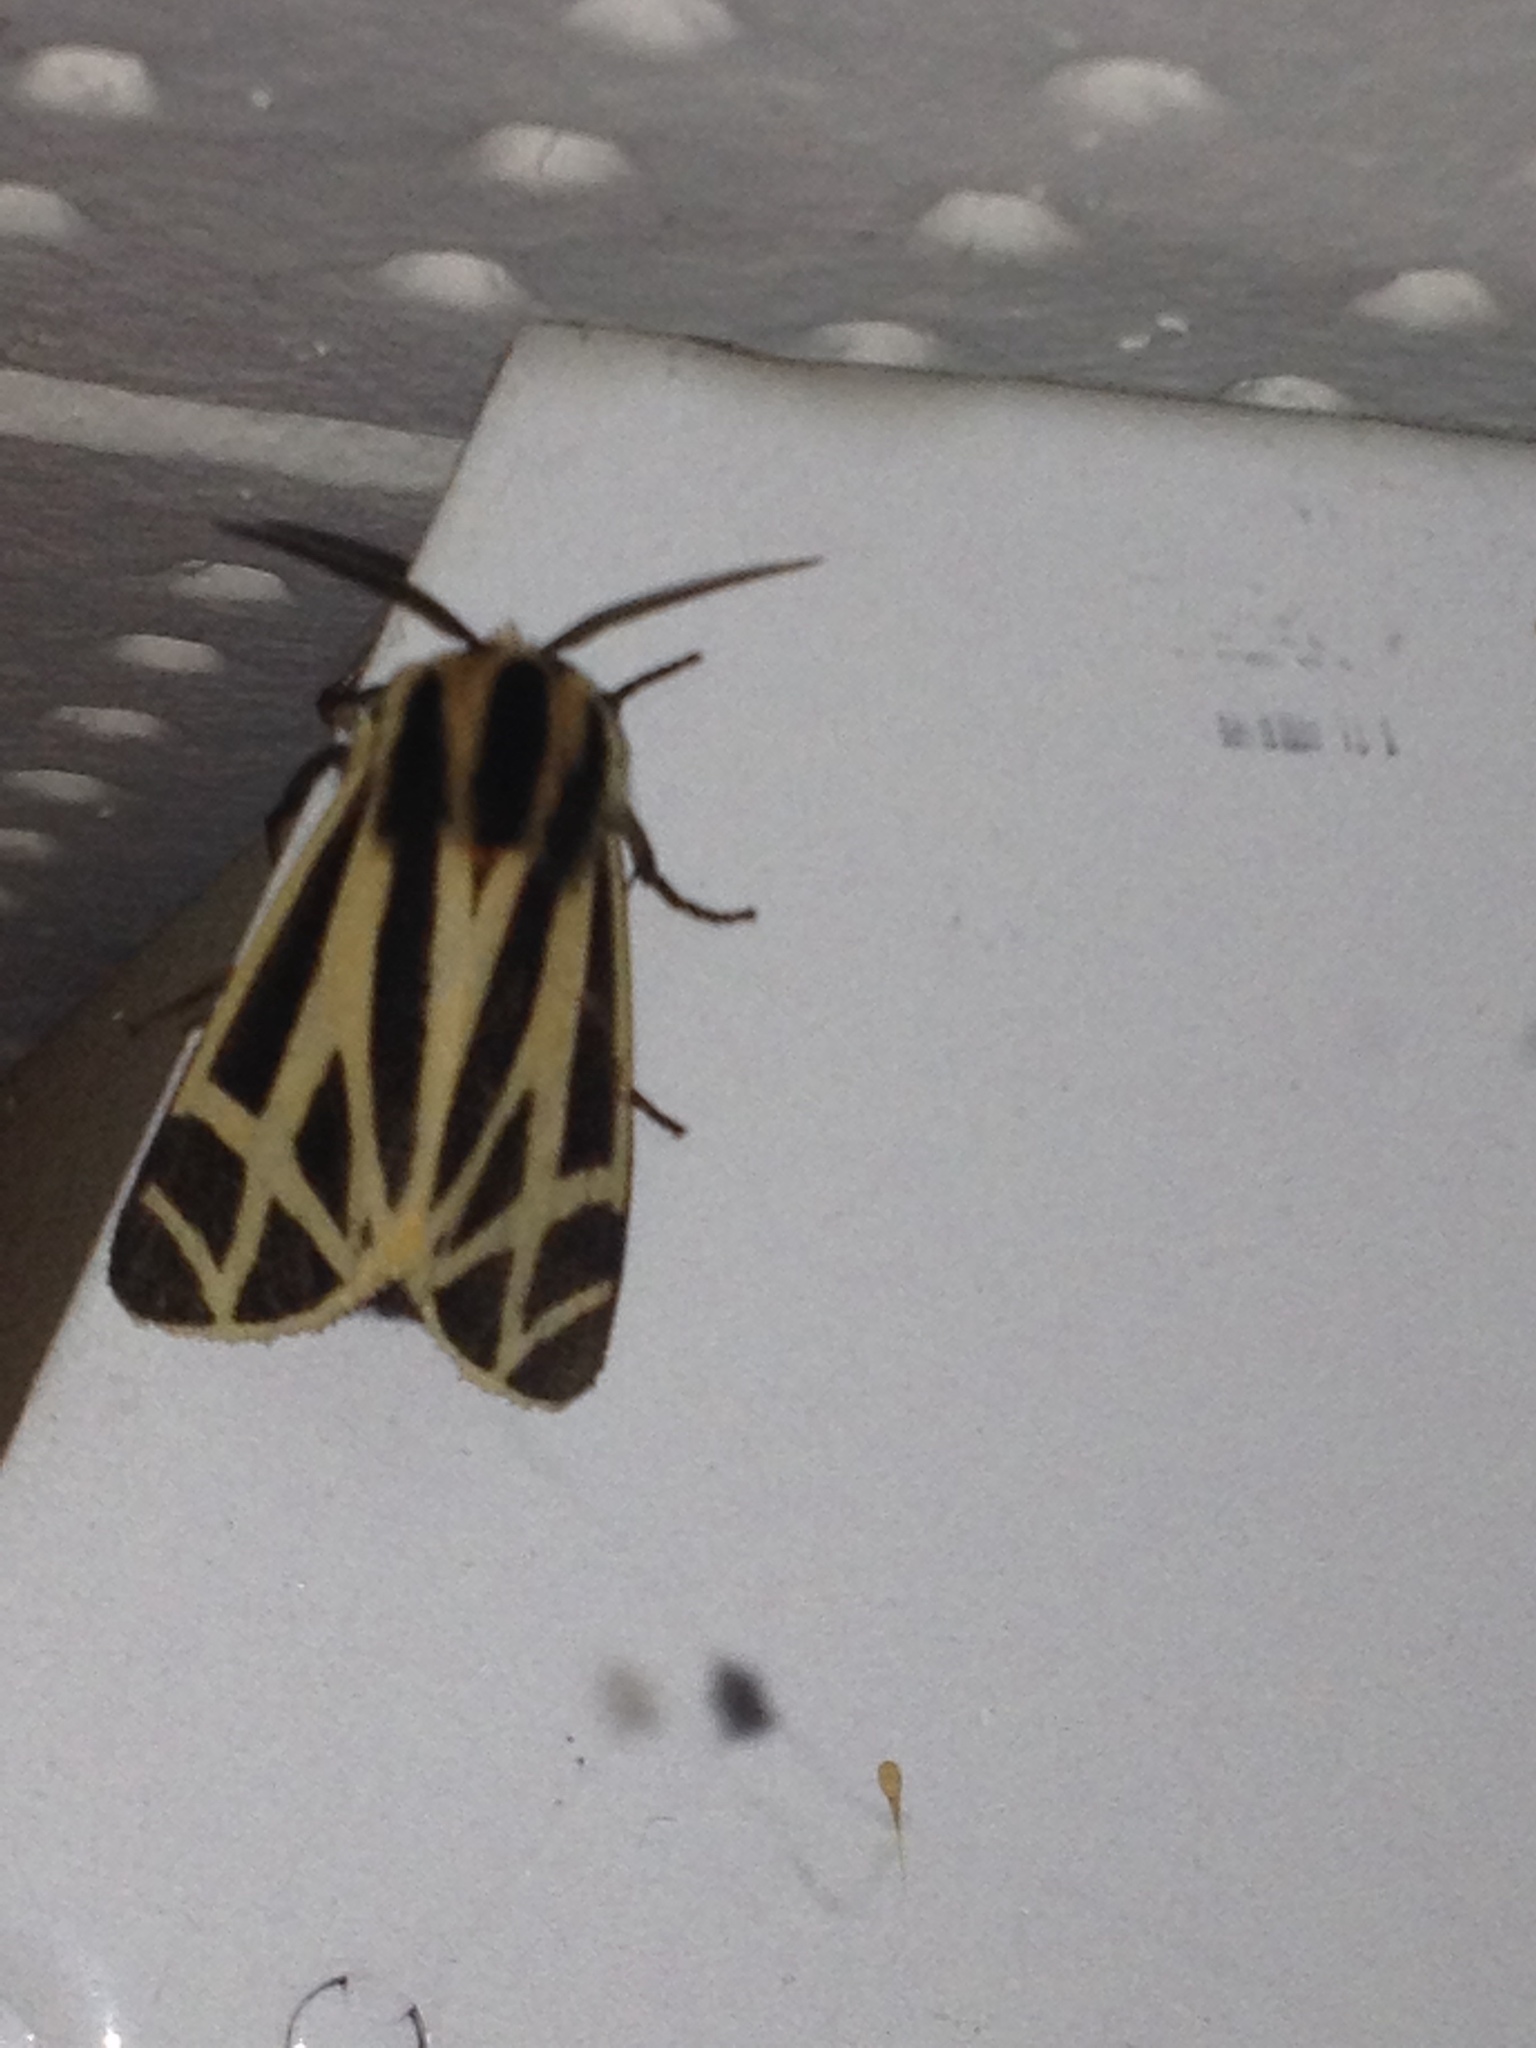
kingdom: Animalia
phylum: Arthropoda
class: Insecta
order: Lepidoptera
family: Erebidae
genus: Apantesis
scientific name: Apantesis phalerata
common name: Harnessed tiger moth
